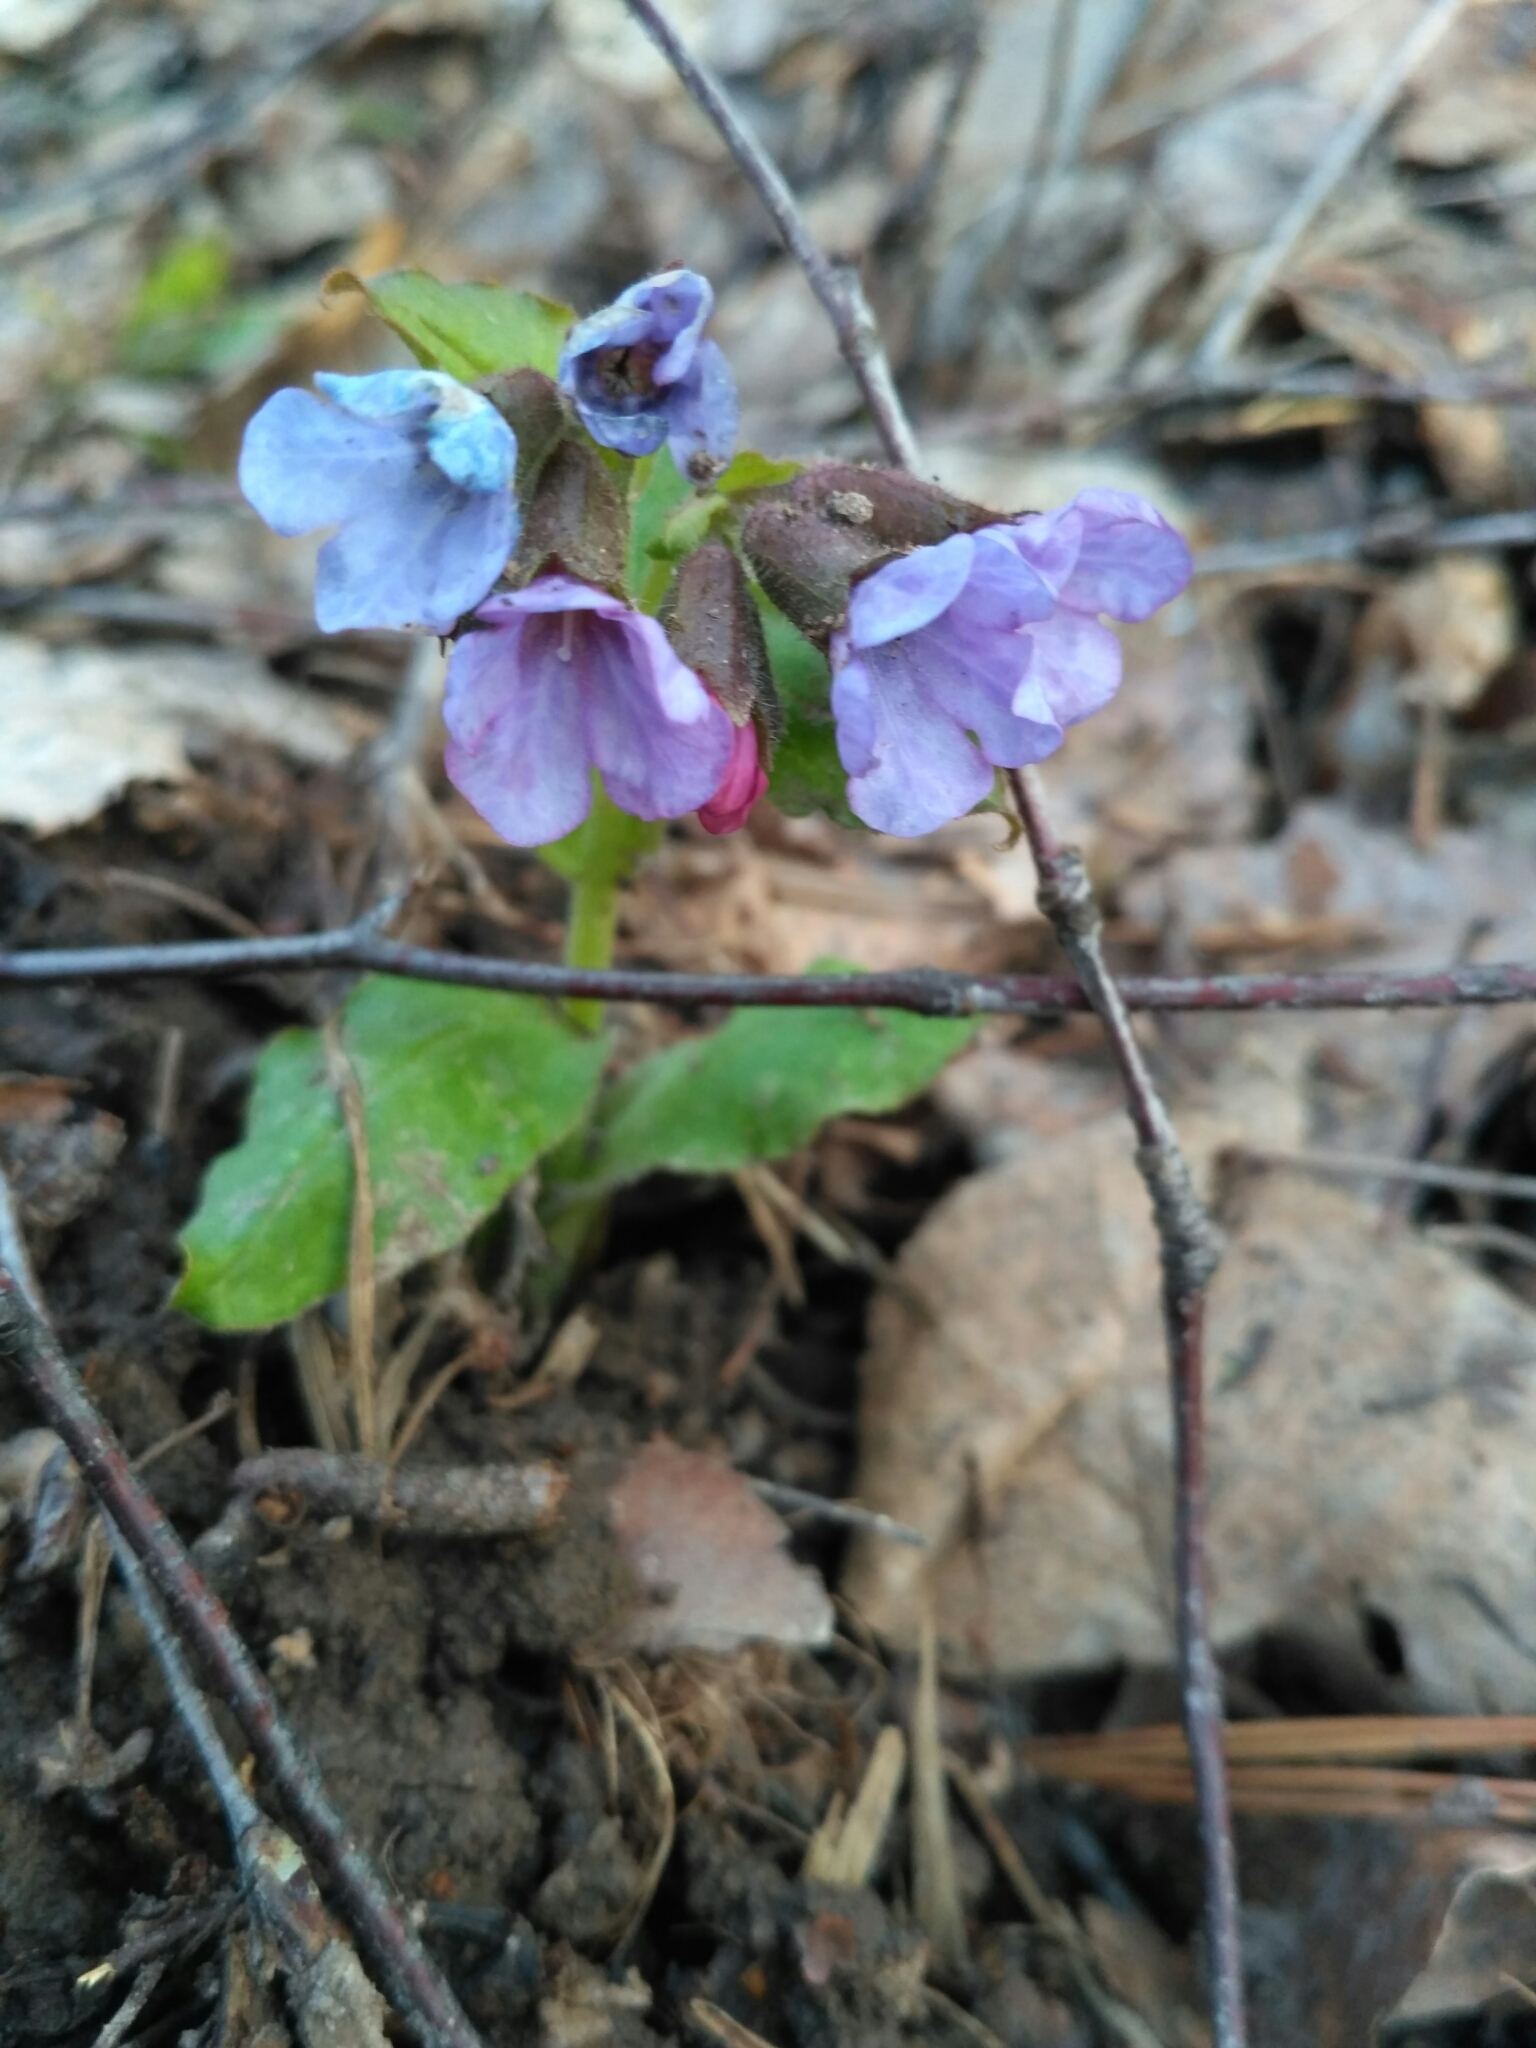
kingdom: Plantae
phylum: Tracheophyta
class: Magnoliopsida
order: Boraginales
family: Boraginaceae
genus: Pulmonaria
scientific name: Pulmonaria obscura
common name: Suffolk lungwort
